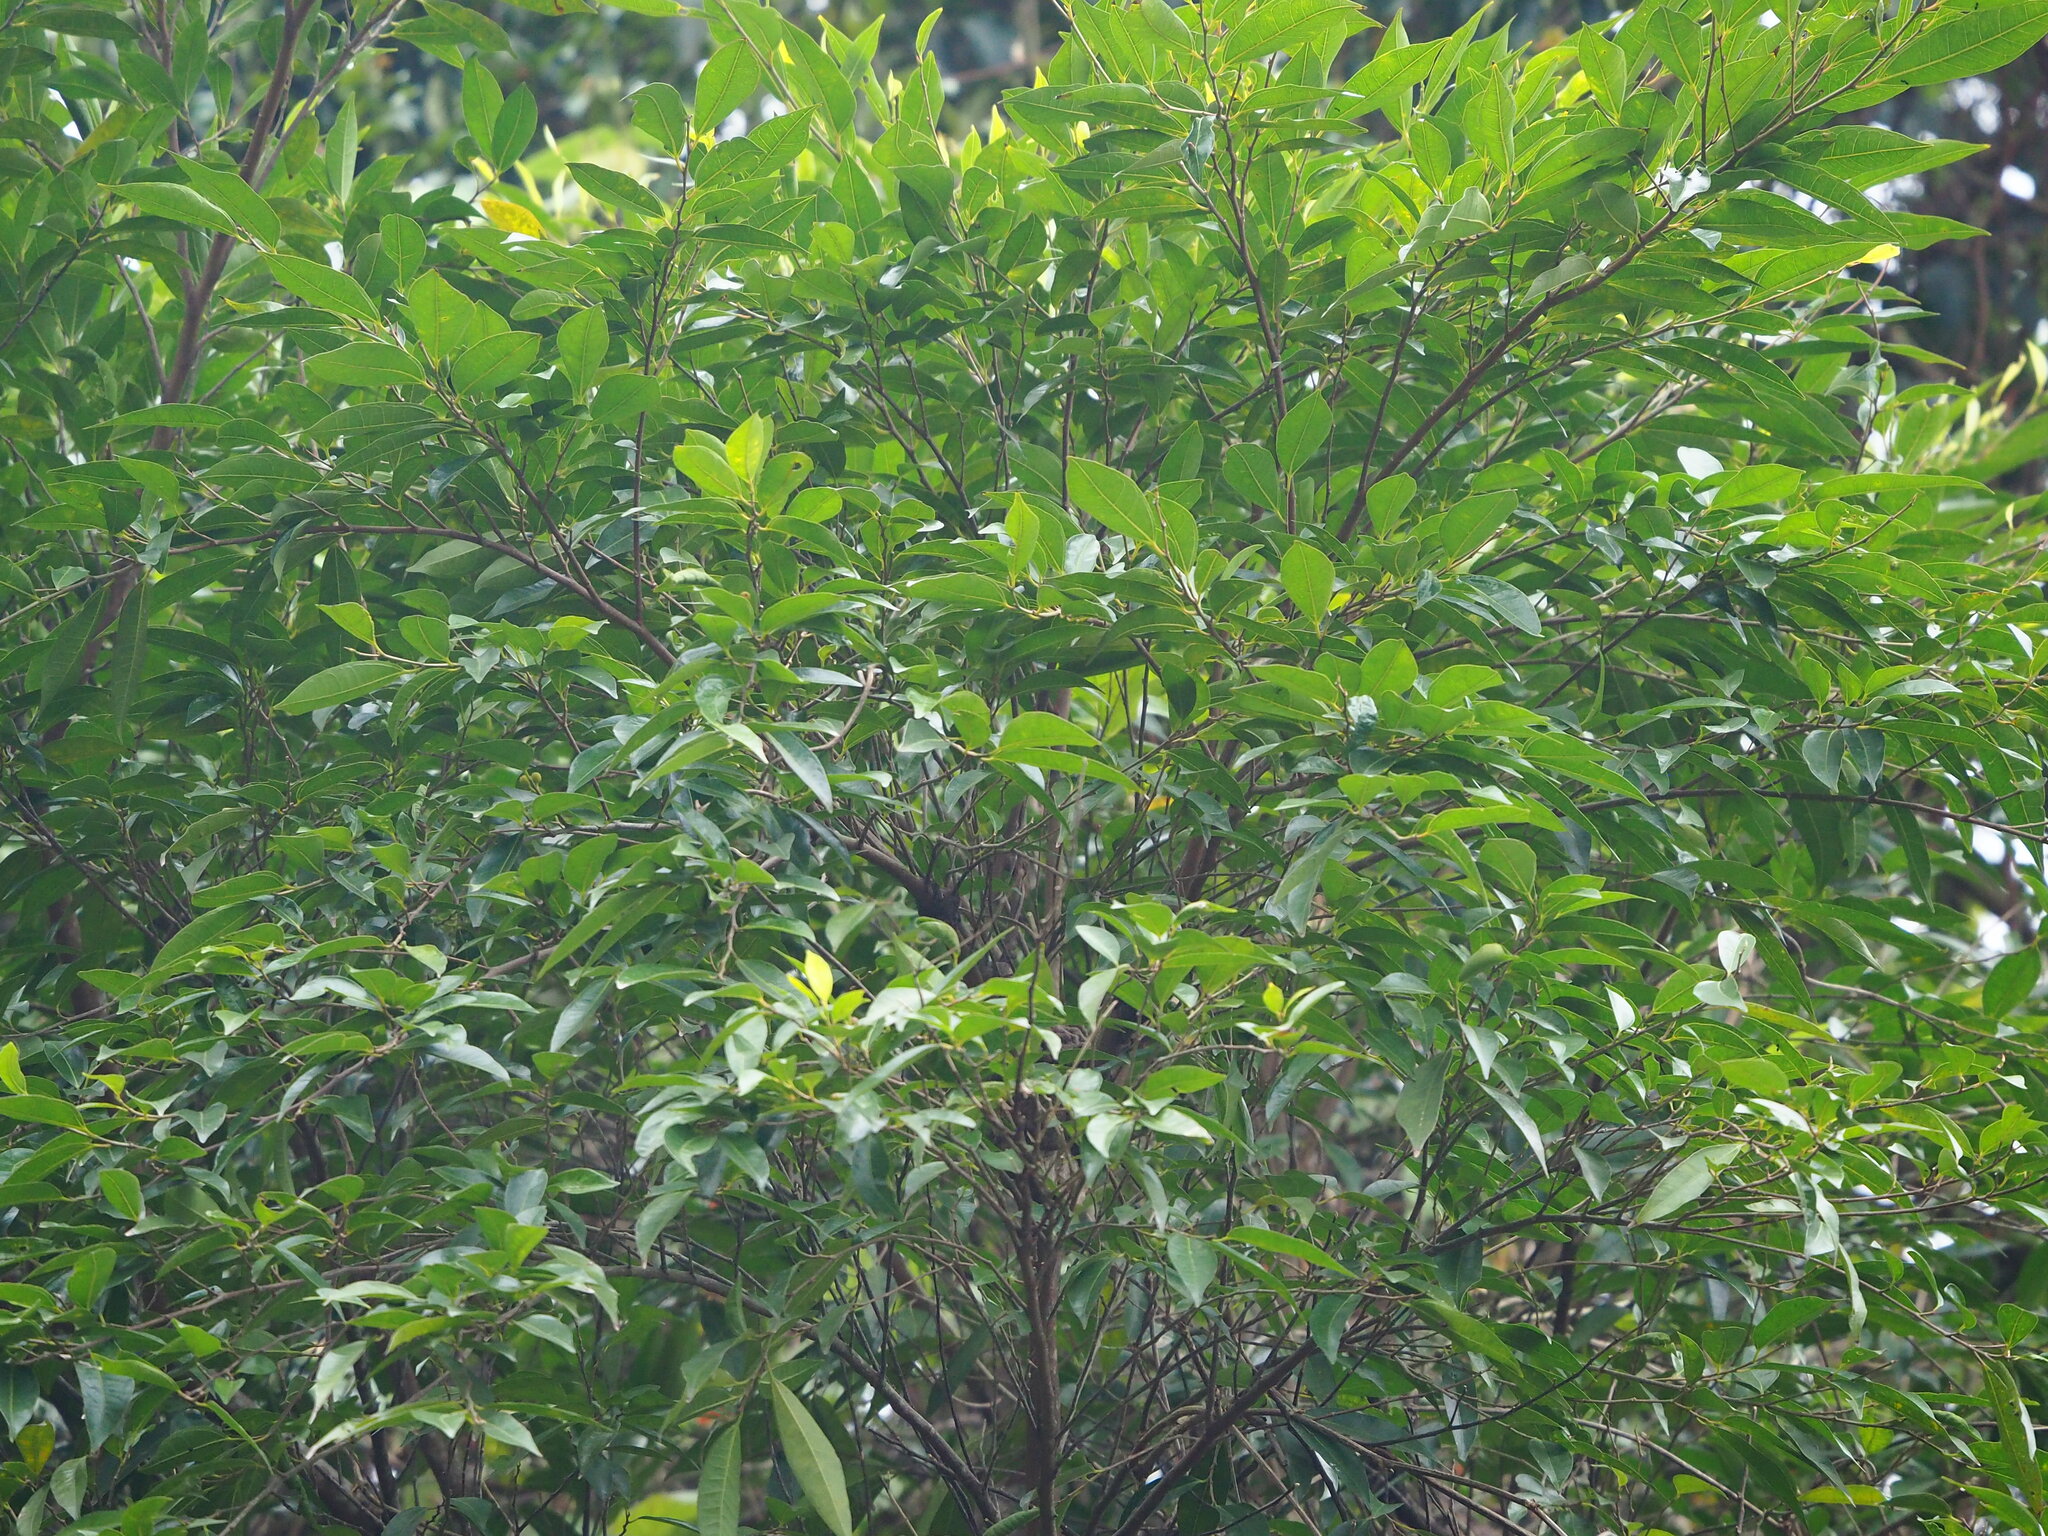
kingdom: Plantae
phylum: Tracheophyta
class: Magnoliopsida
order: Rosales
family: Moraceae
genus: Ficus
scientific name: Ficus ampelos
